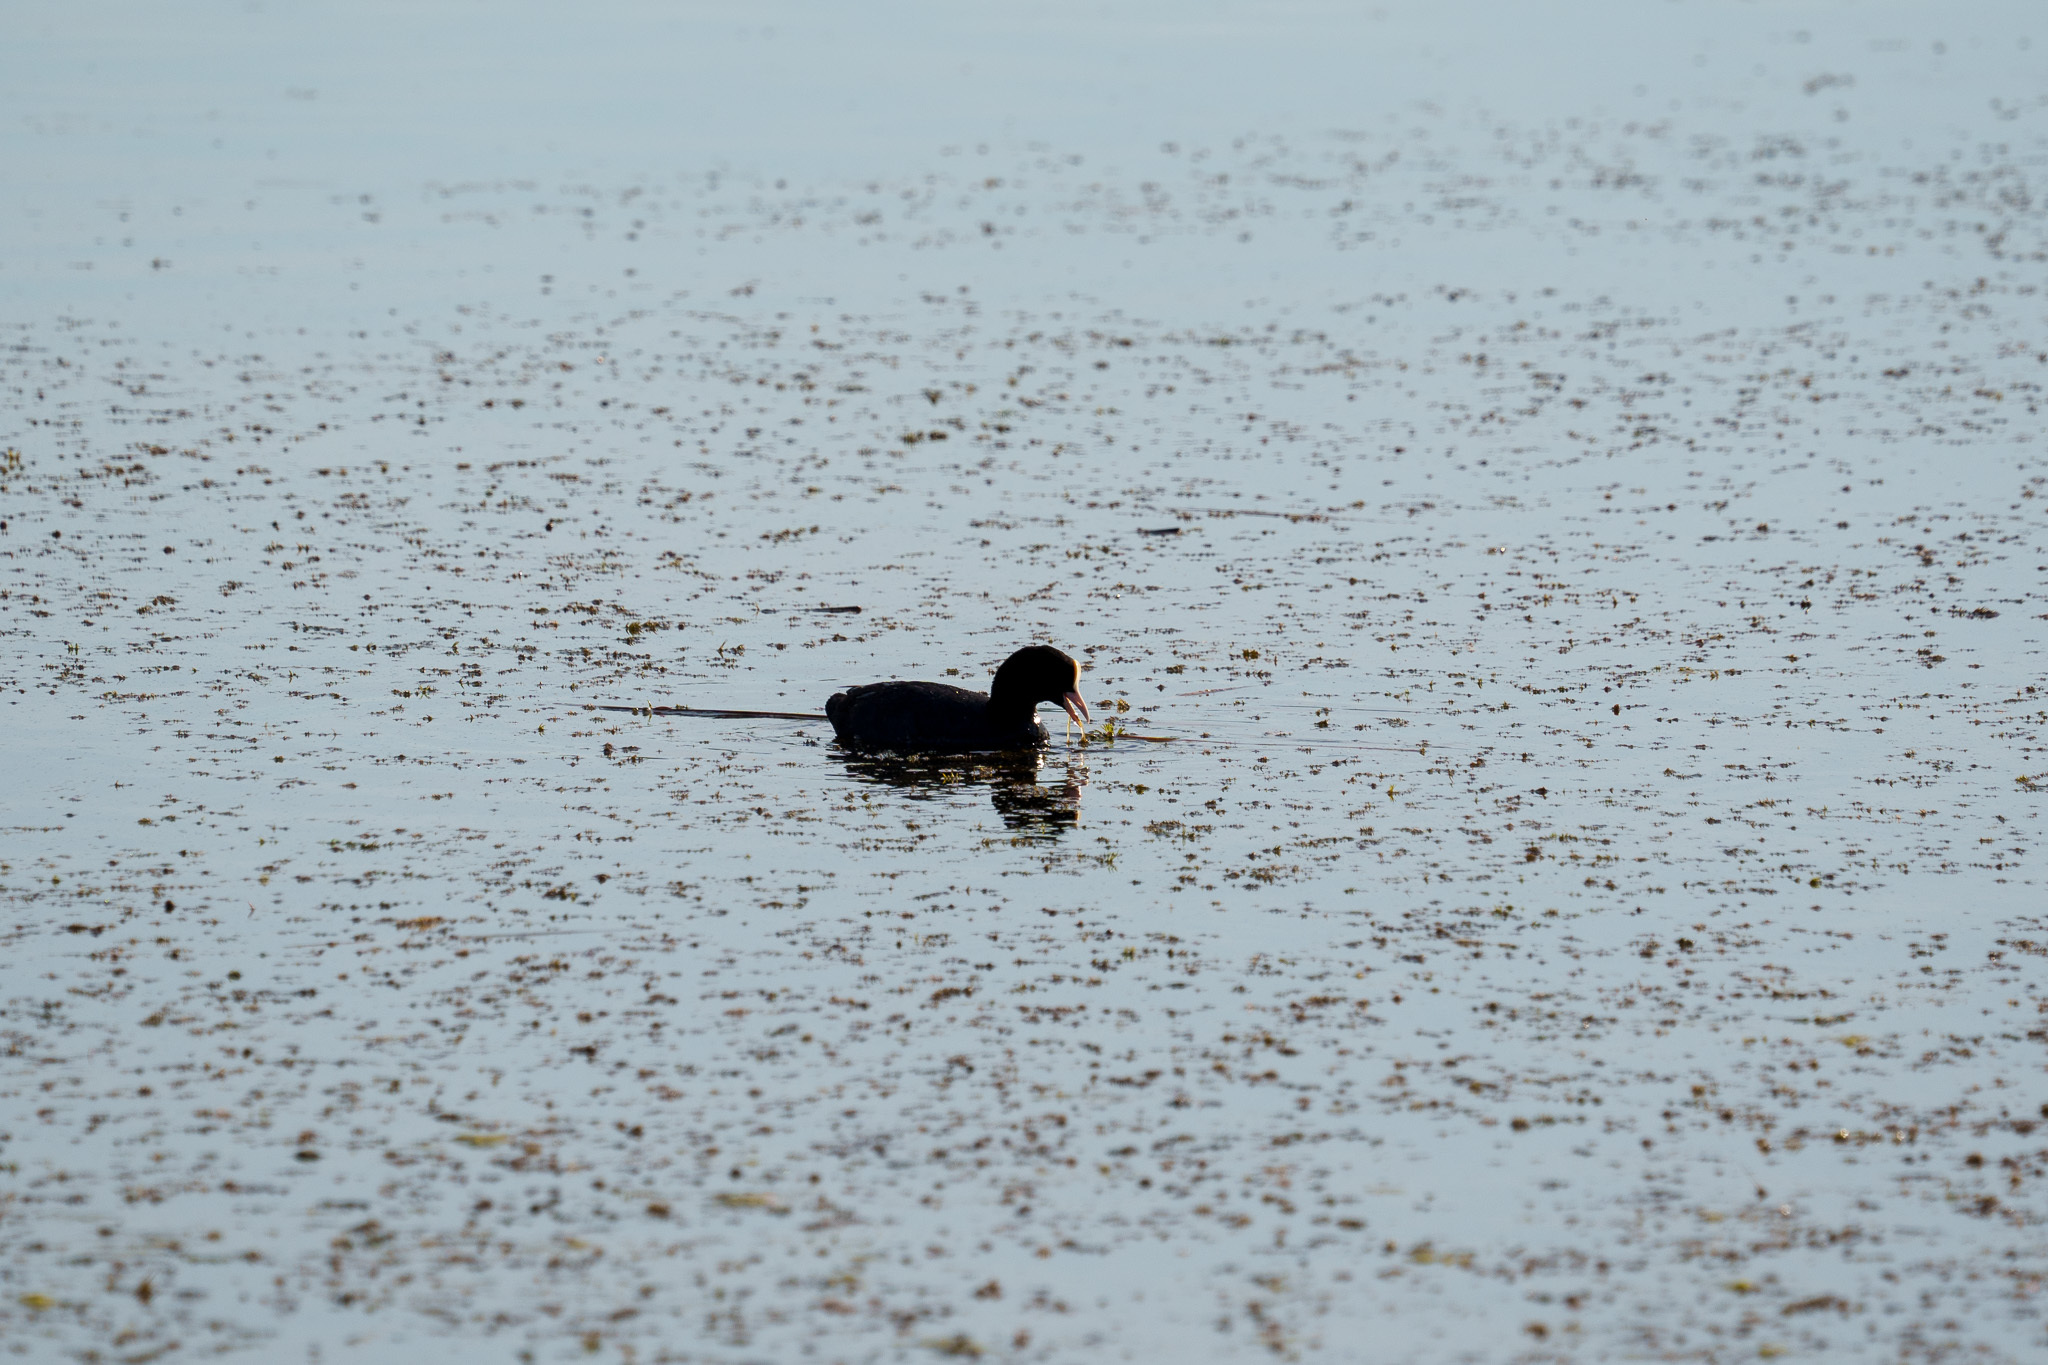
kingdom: Animalia
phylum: Chordata
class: Aves
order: Gruiformes
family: Rallidae
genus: Fulica
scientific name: Fulica atra
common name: Eurasian coot
